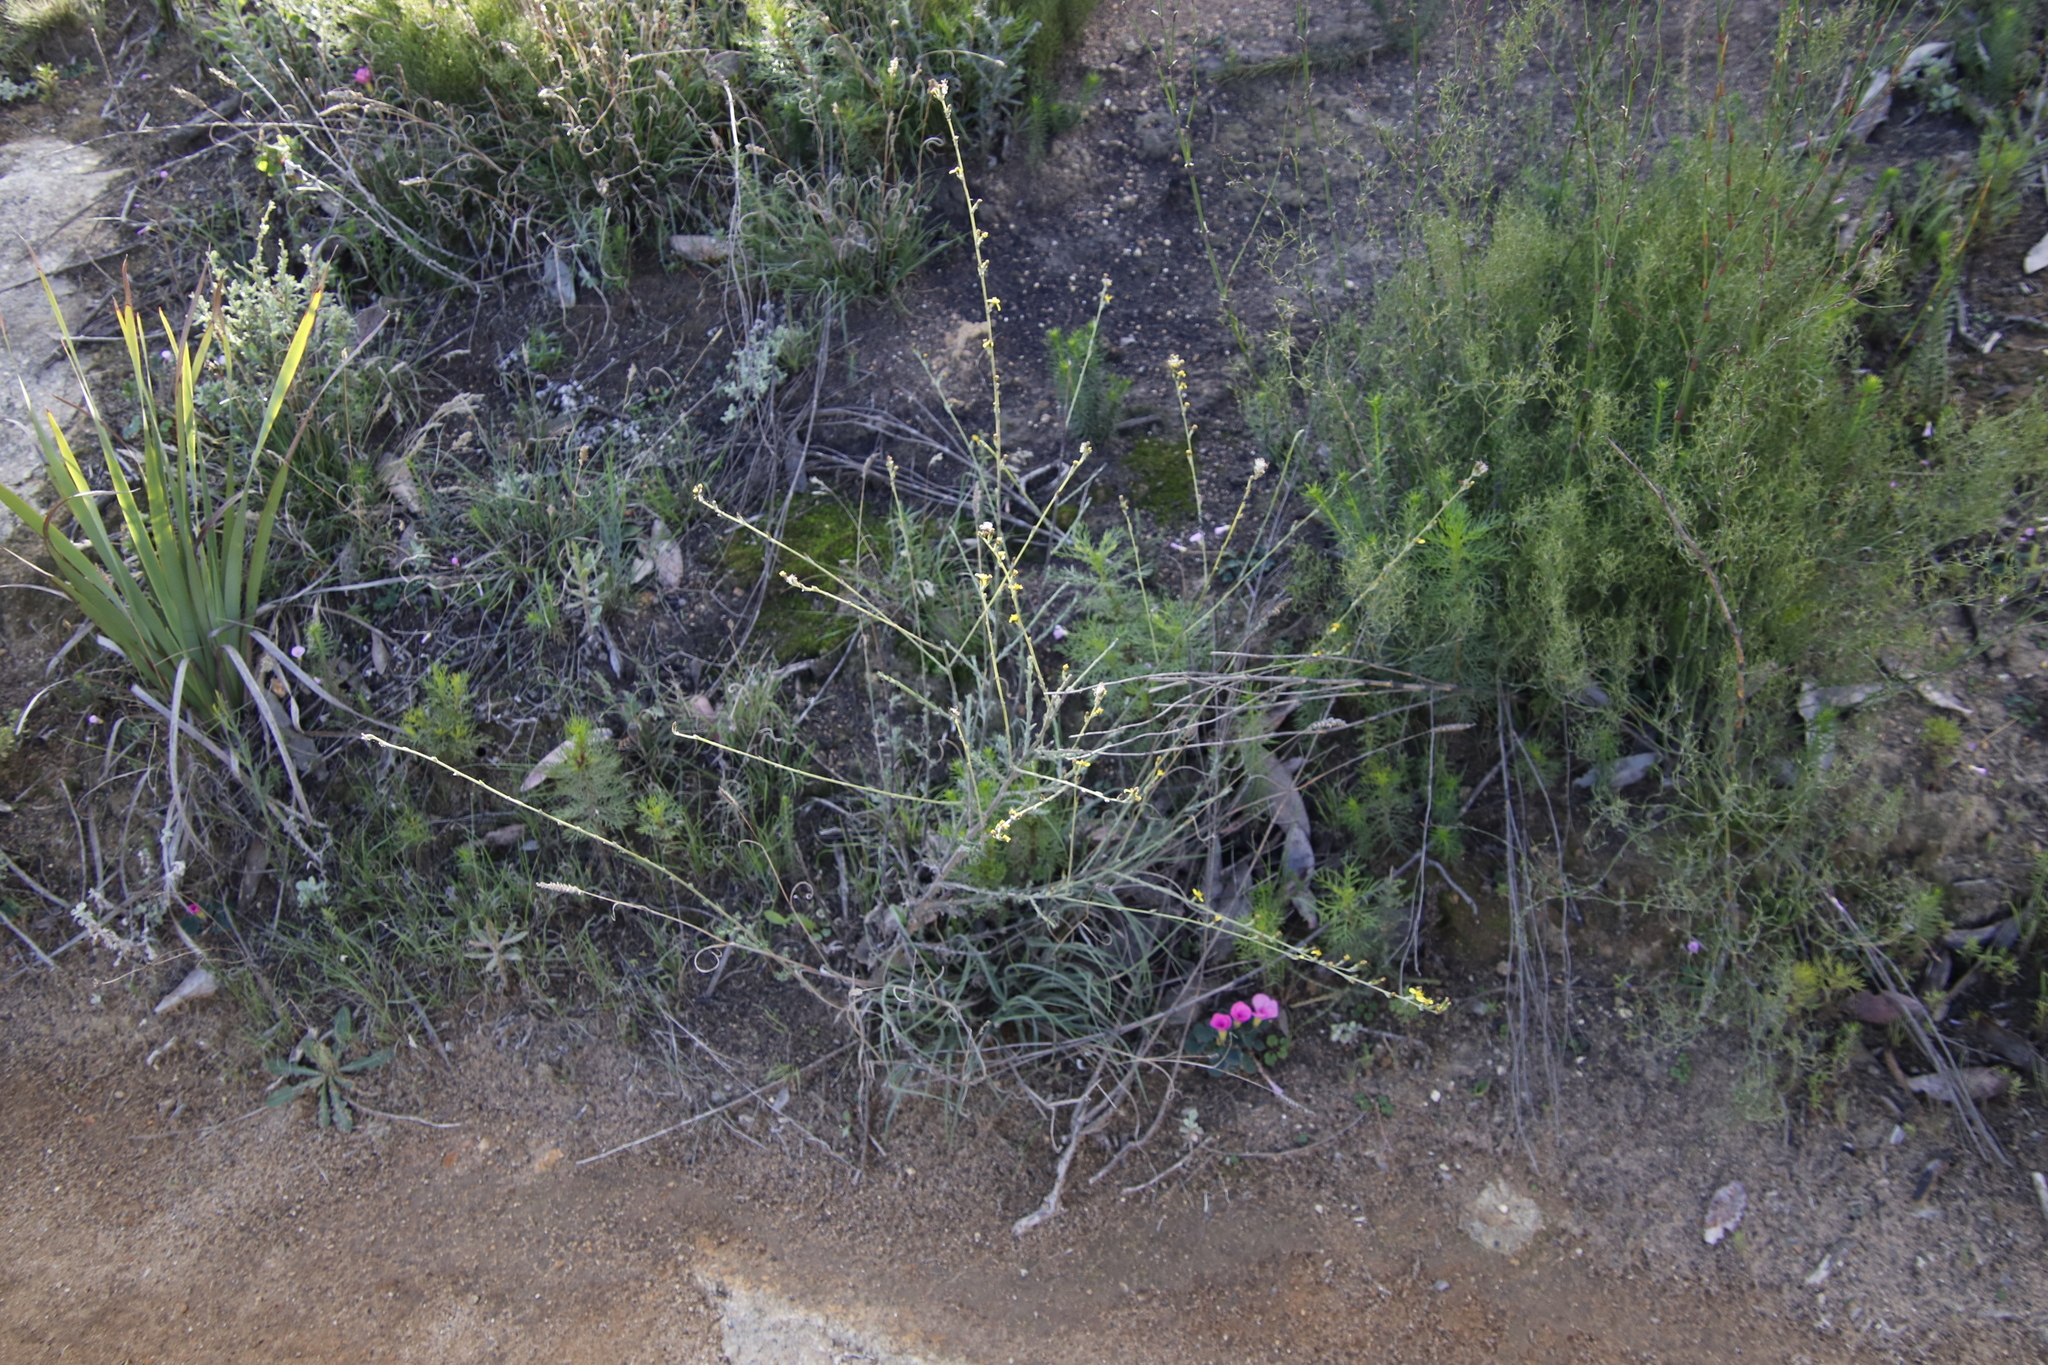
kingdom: Plantae
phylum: Tracheophyta
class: Magnoliopsida
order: Asterales
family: Asteraceae
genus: Senecio
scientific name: Senecio pubigerus
